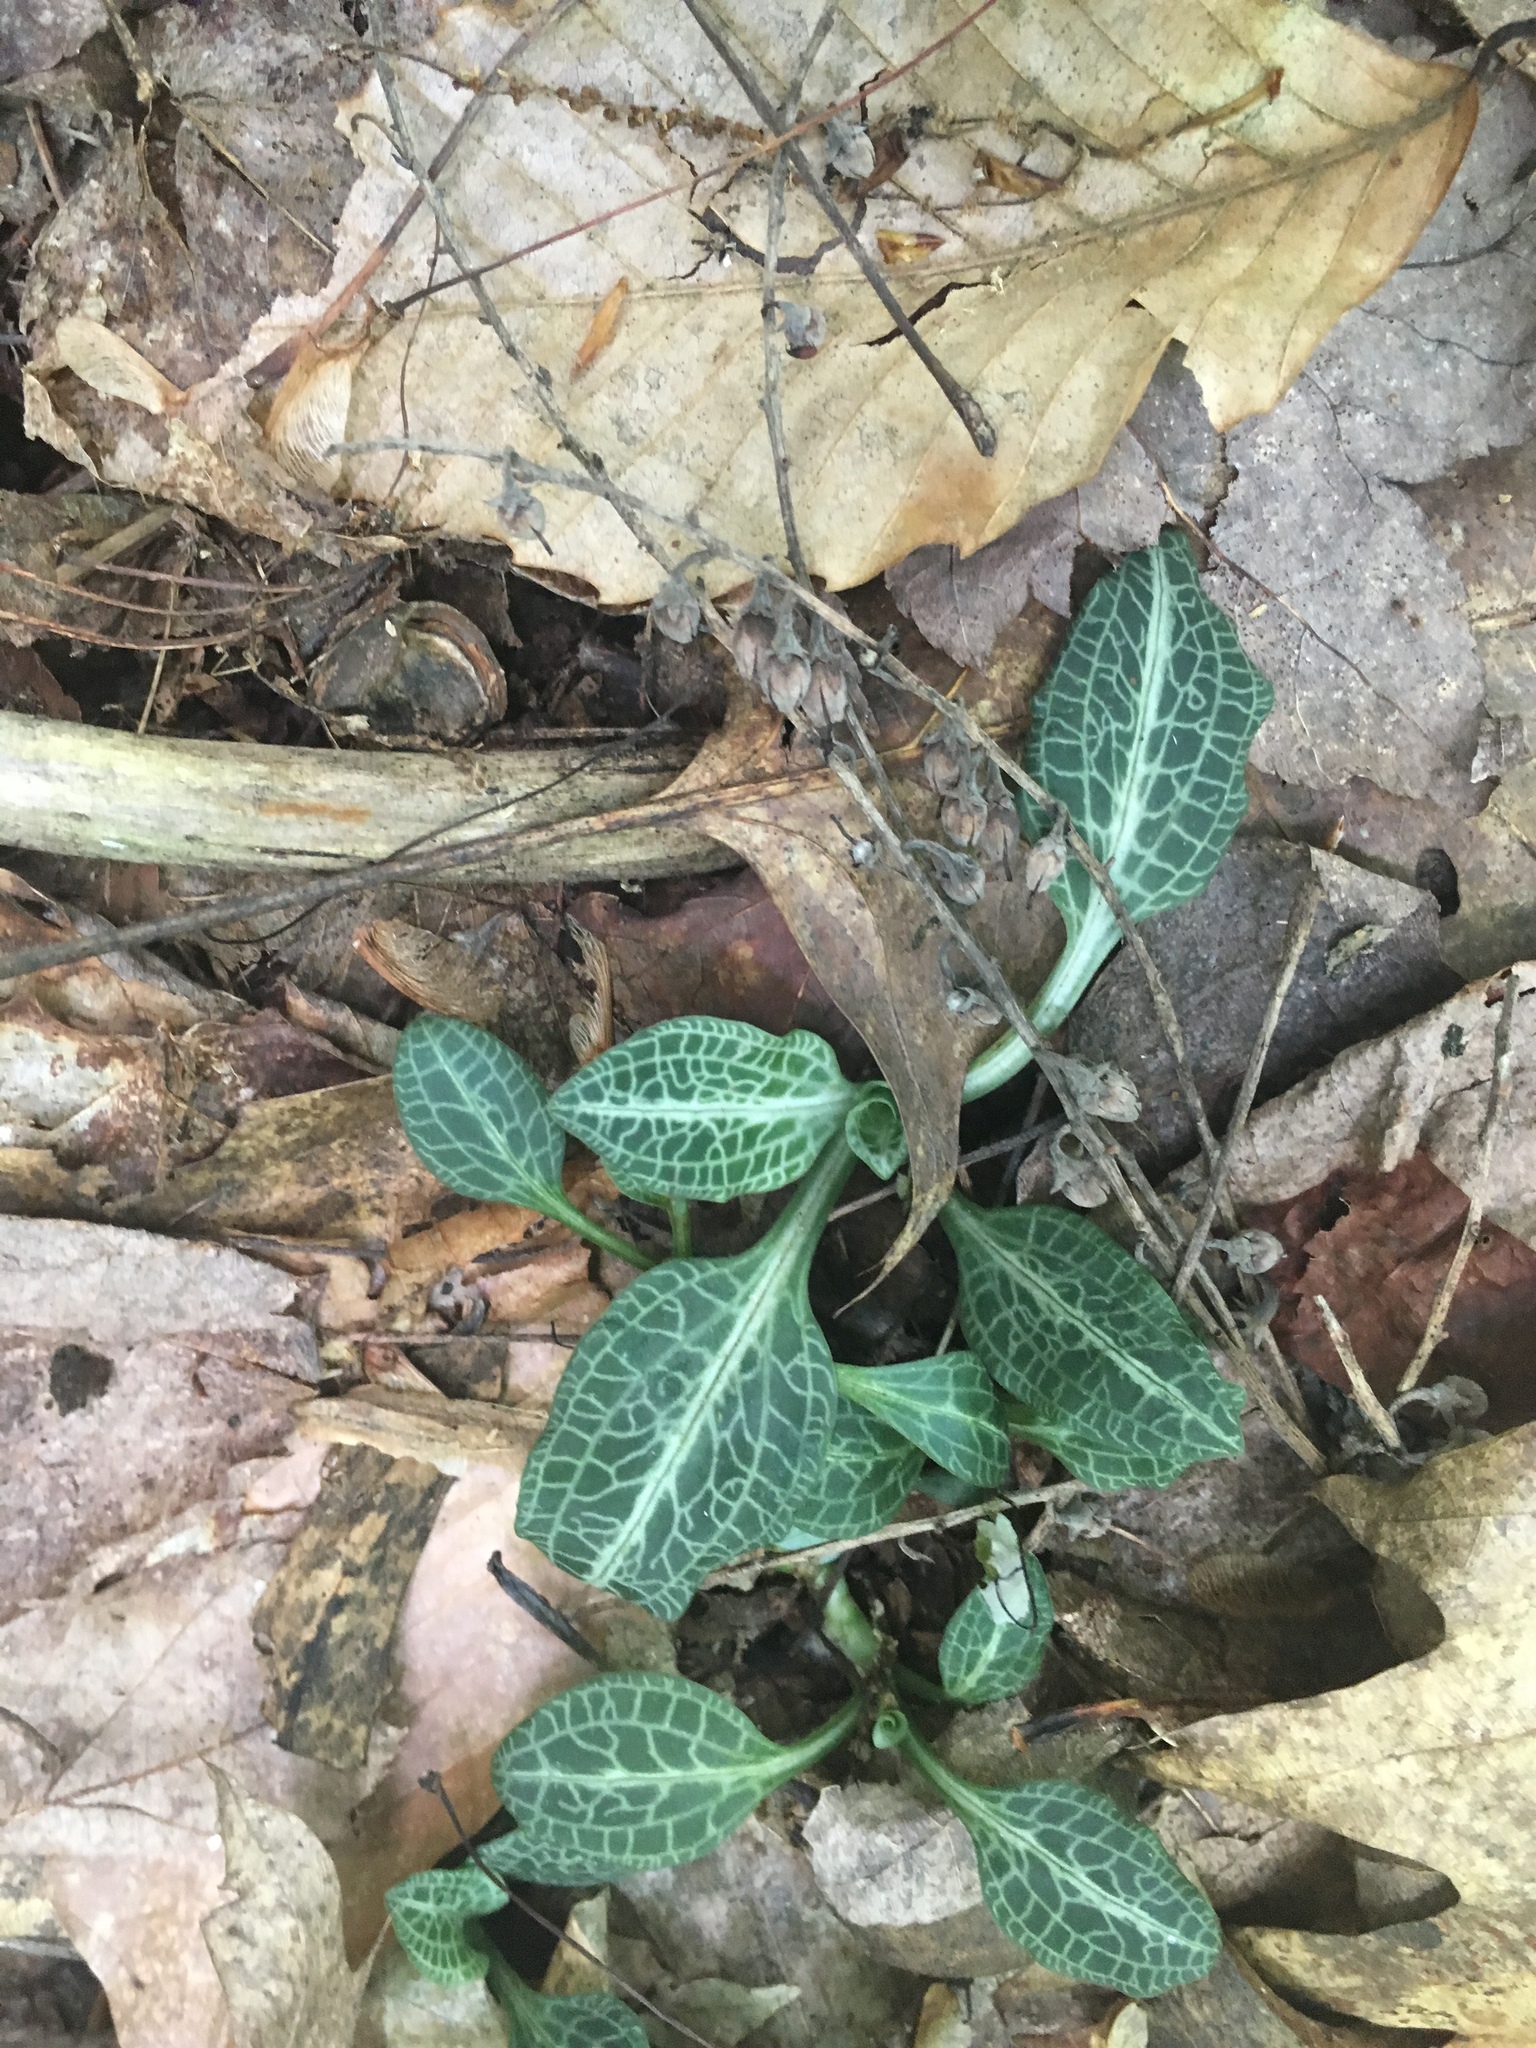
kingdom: Plantae
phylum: Tracheophyta
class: Liliopsida
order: Asparagales
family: Orchidaceae
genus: Goodyera
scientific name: Goodyera pubescens
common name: Downy rattlesnake-plantain
